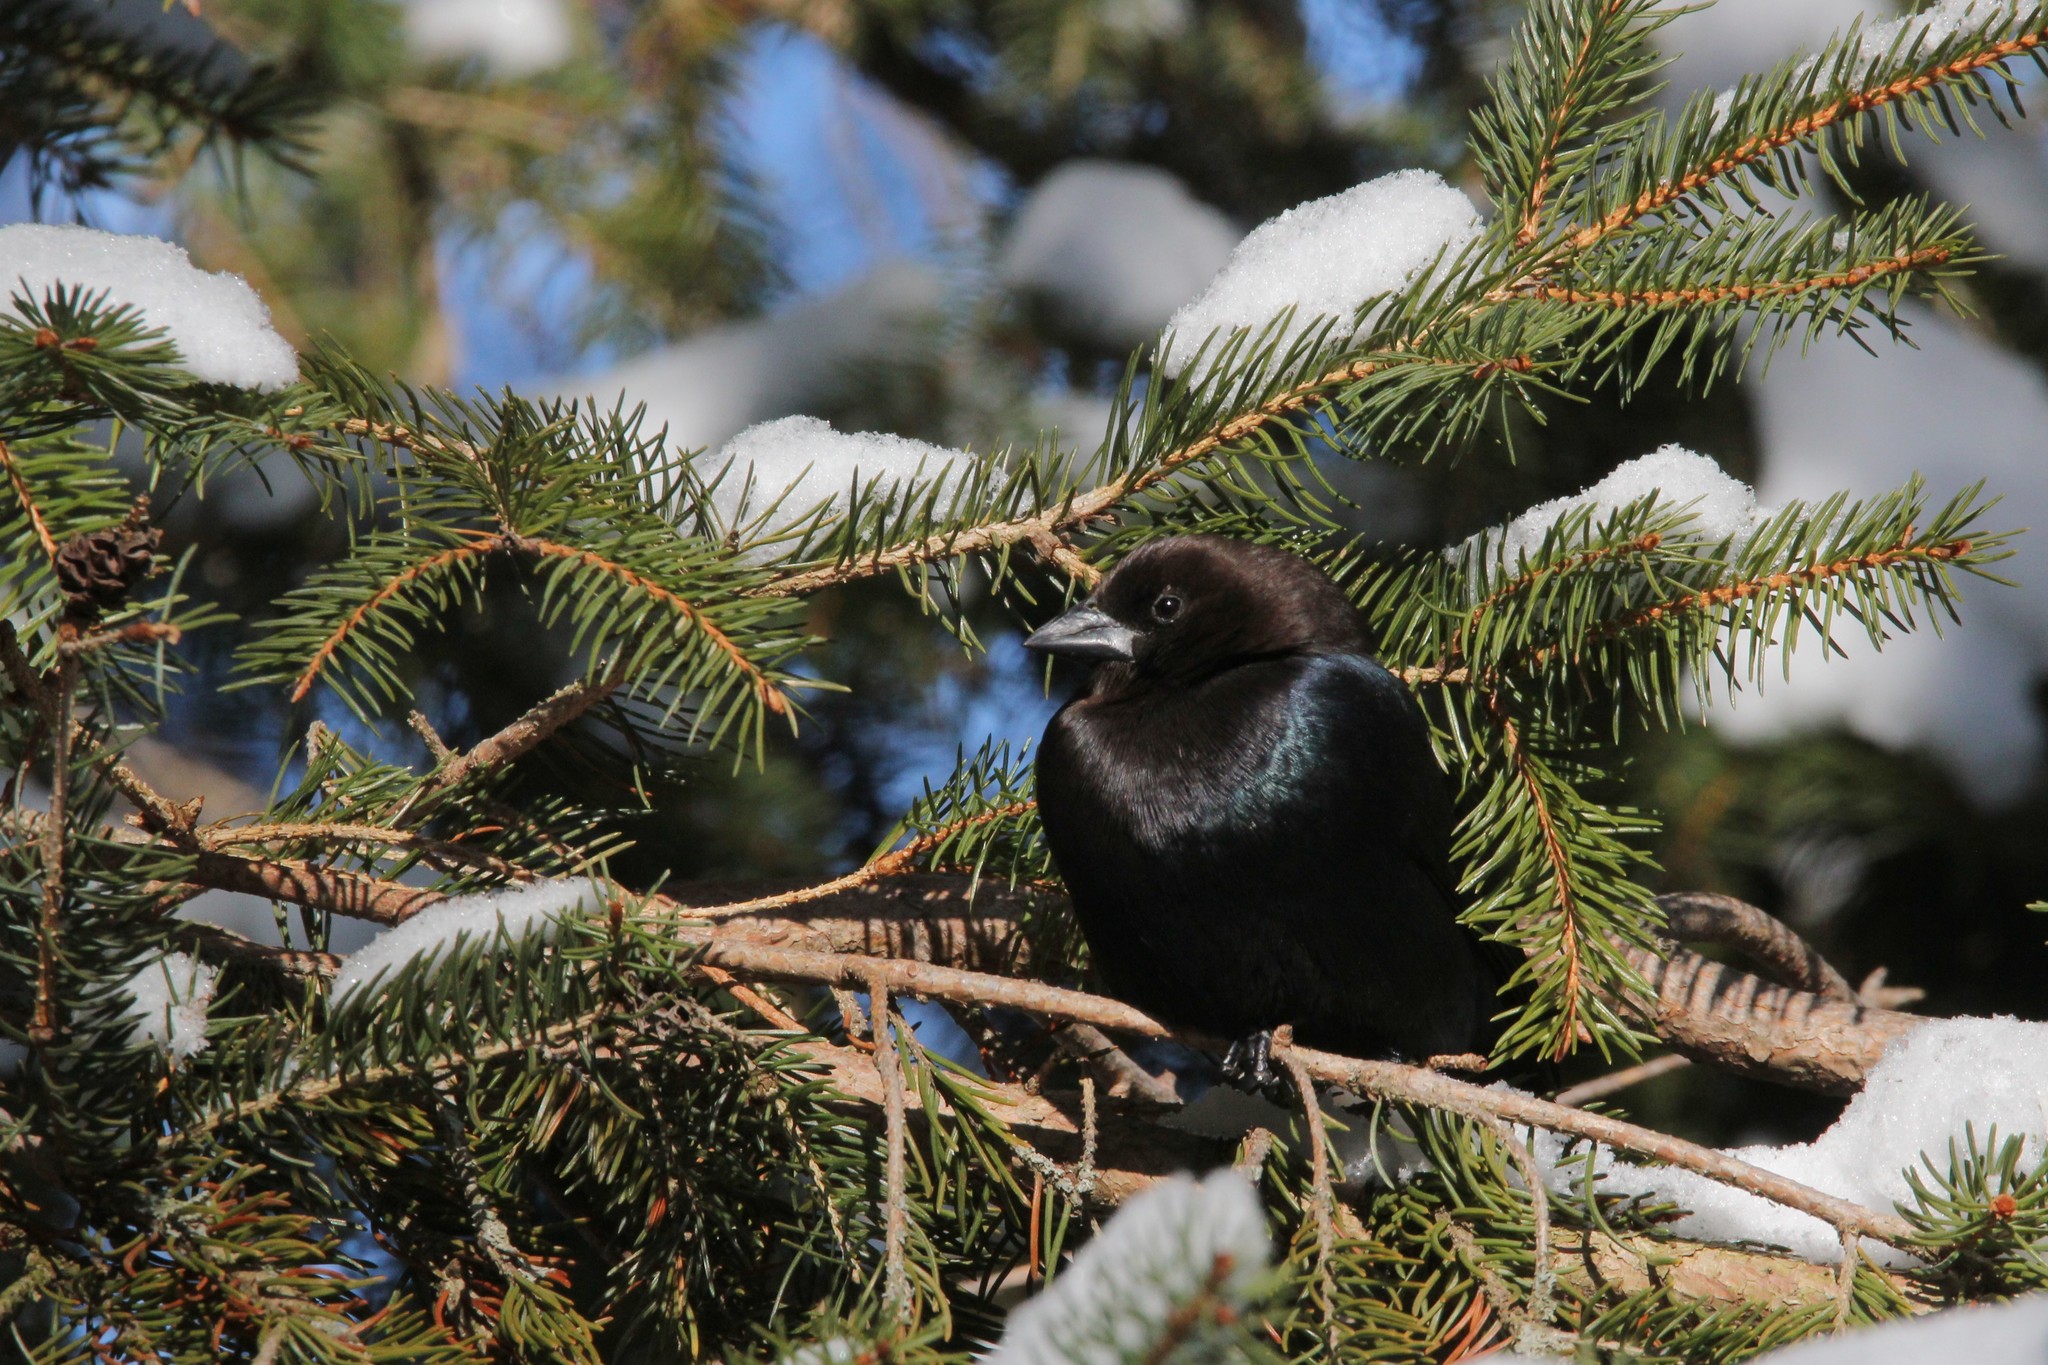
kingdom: Animalia
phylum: Chordata
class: Aves
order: Passeriformes
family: Icteridae
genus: Molothrus
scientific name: Molothrus ater
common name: Brown-headed cowbird
